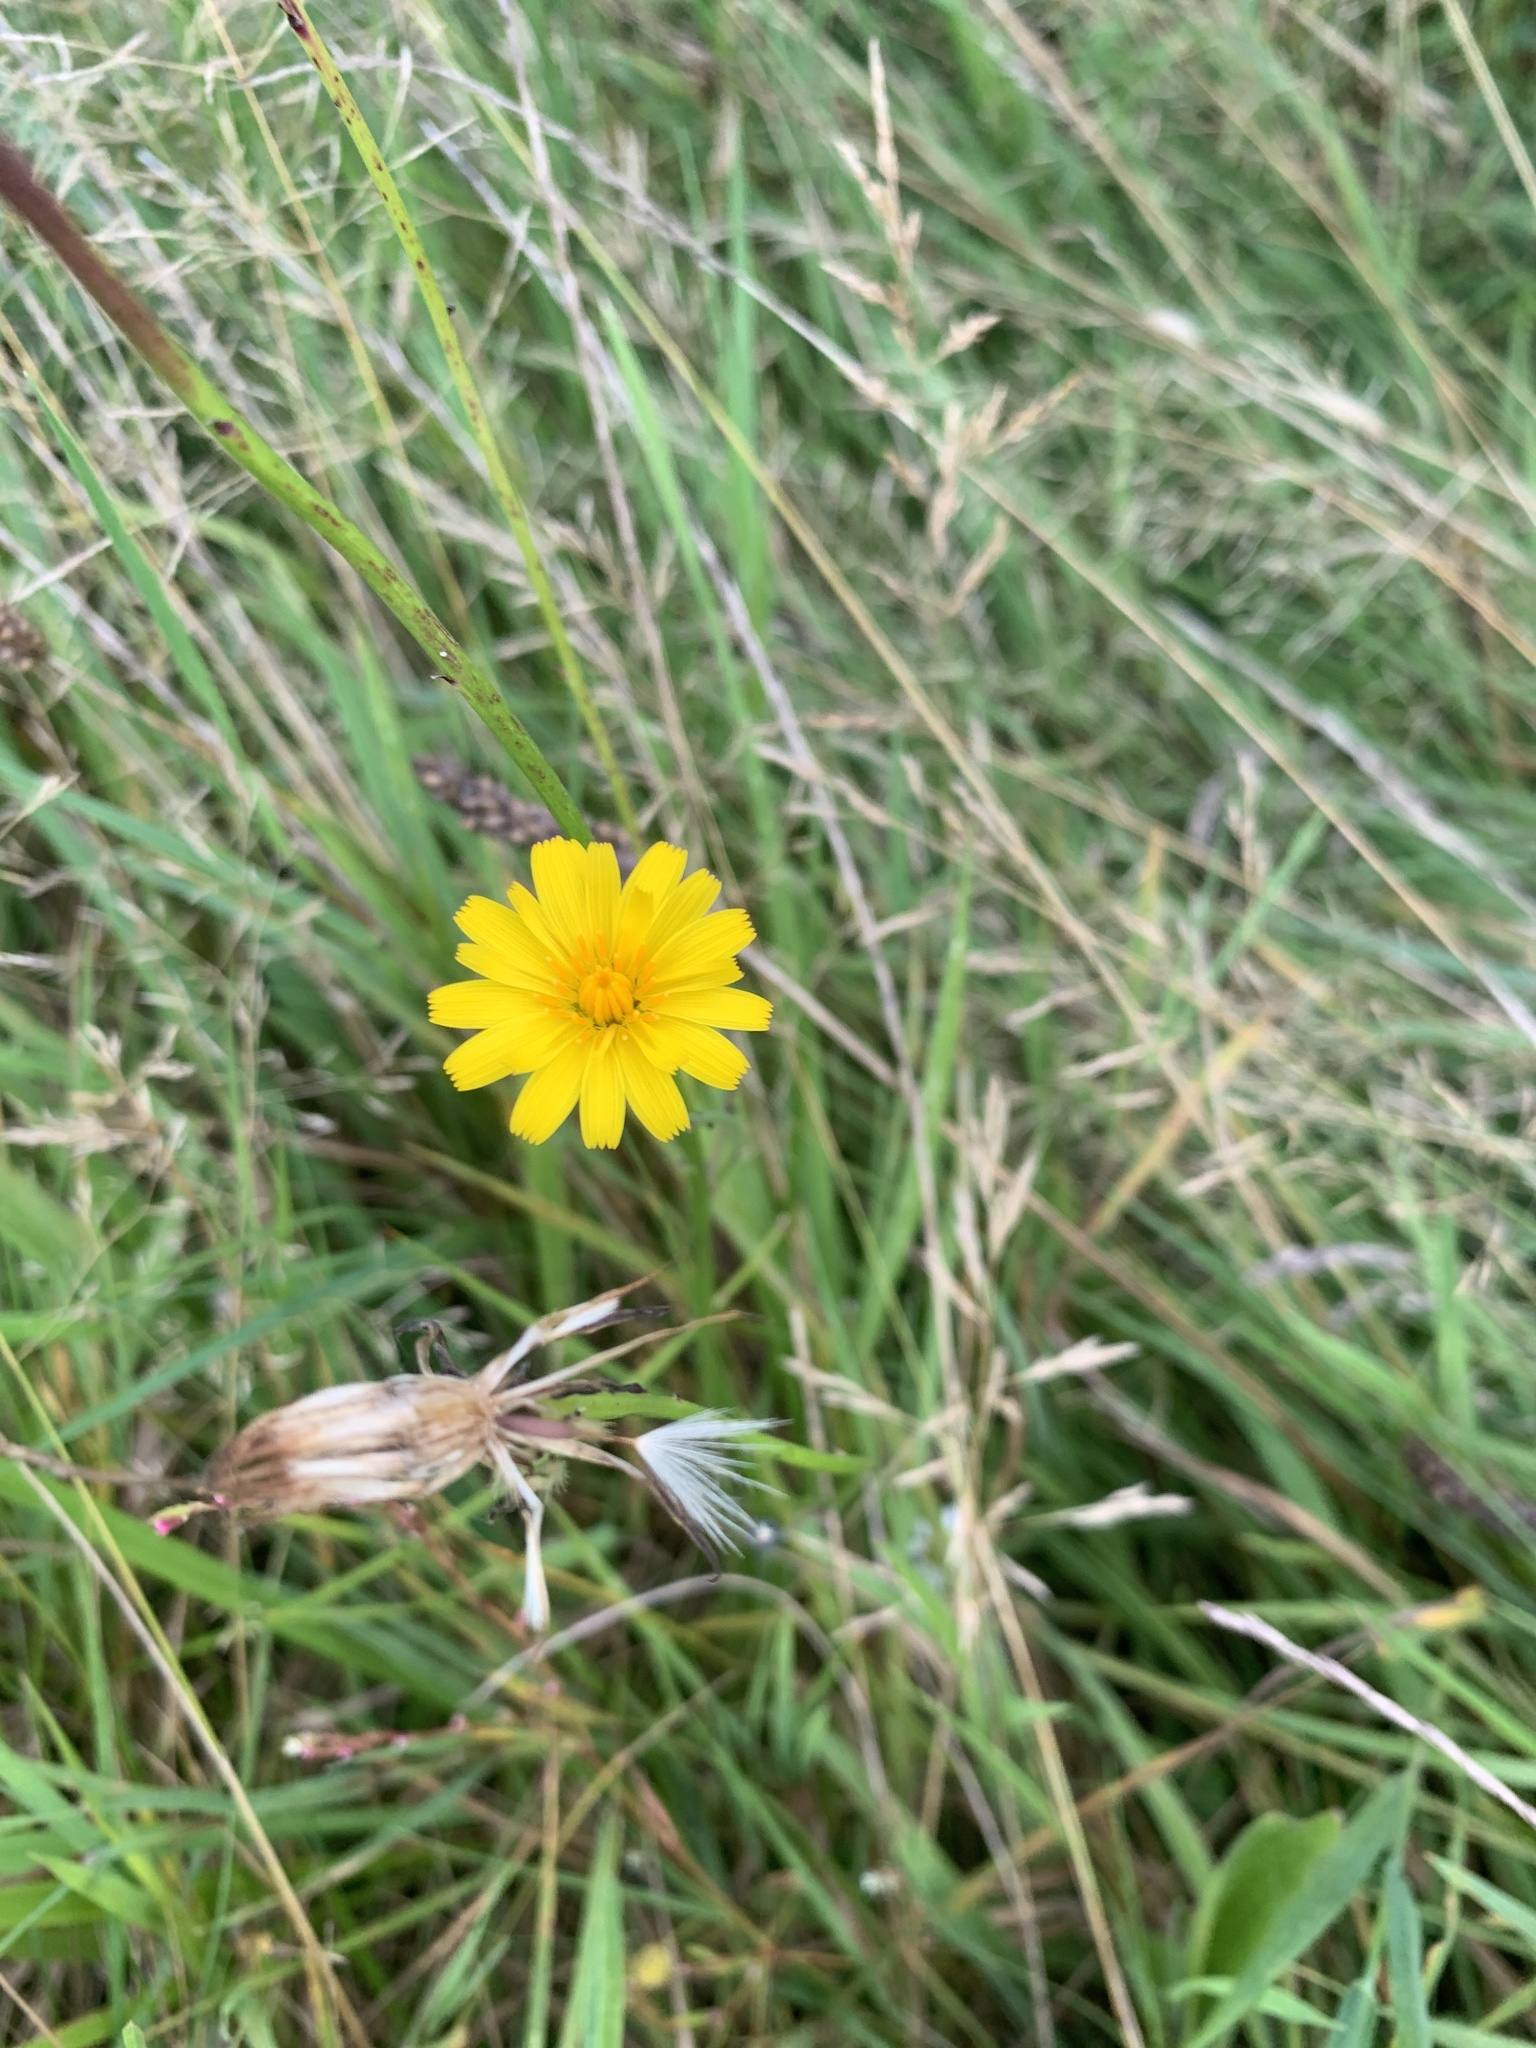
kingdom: Plantae
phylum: Tracheophyta
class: Magnoliopsida
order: Asterales
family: Asteraceae
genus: Hypochaeris
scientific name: Hypochaeris radicata
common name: Flatweed
